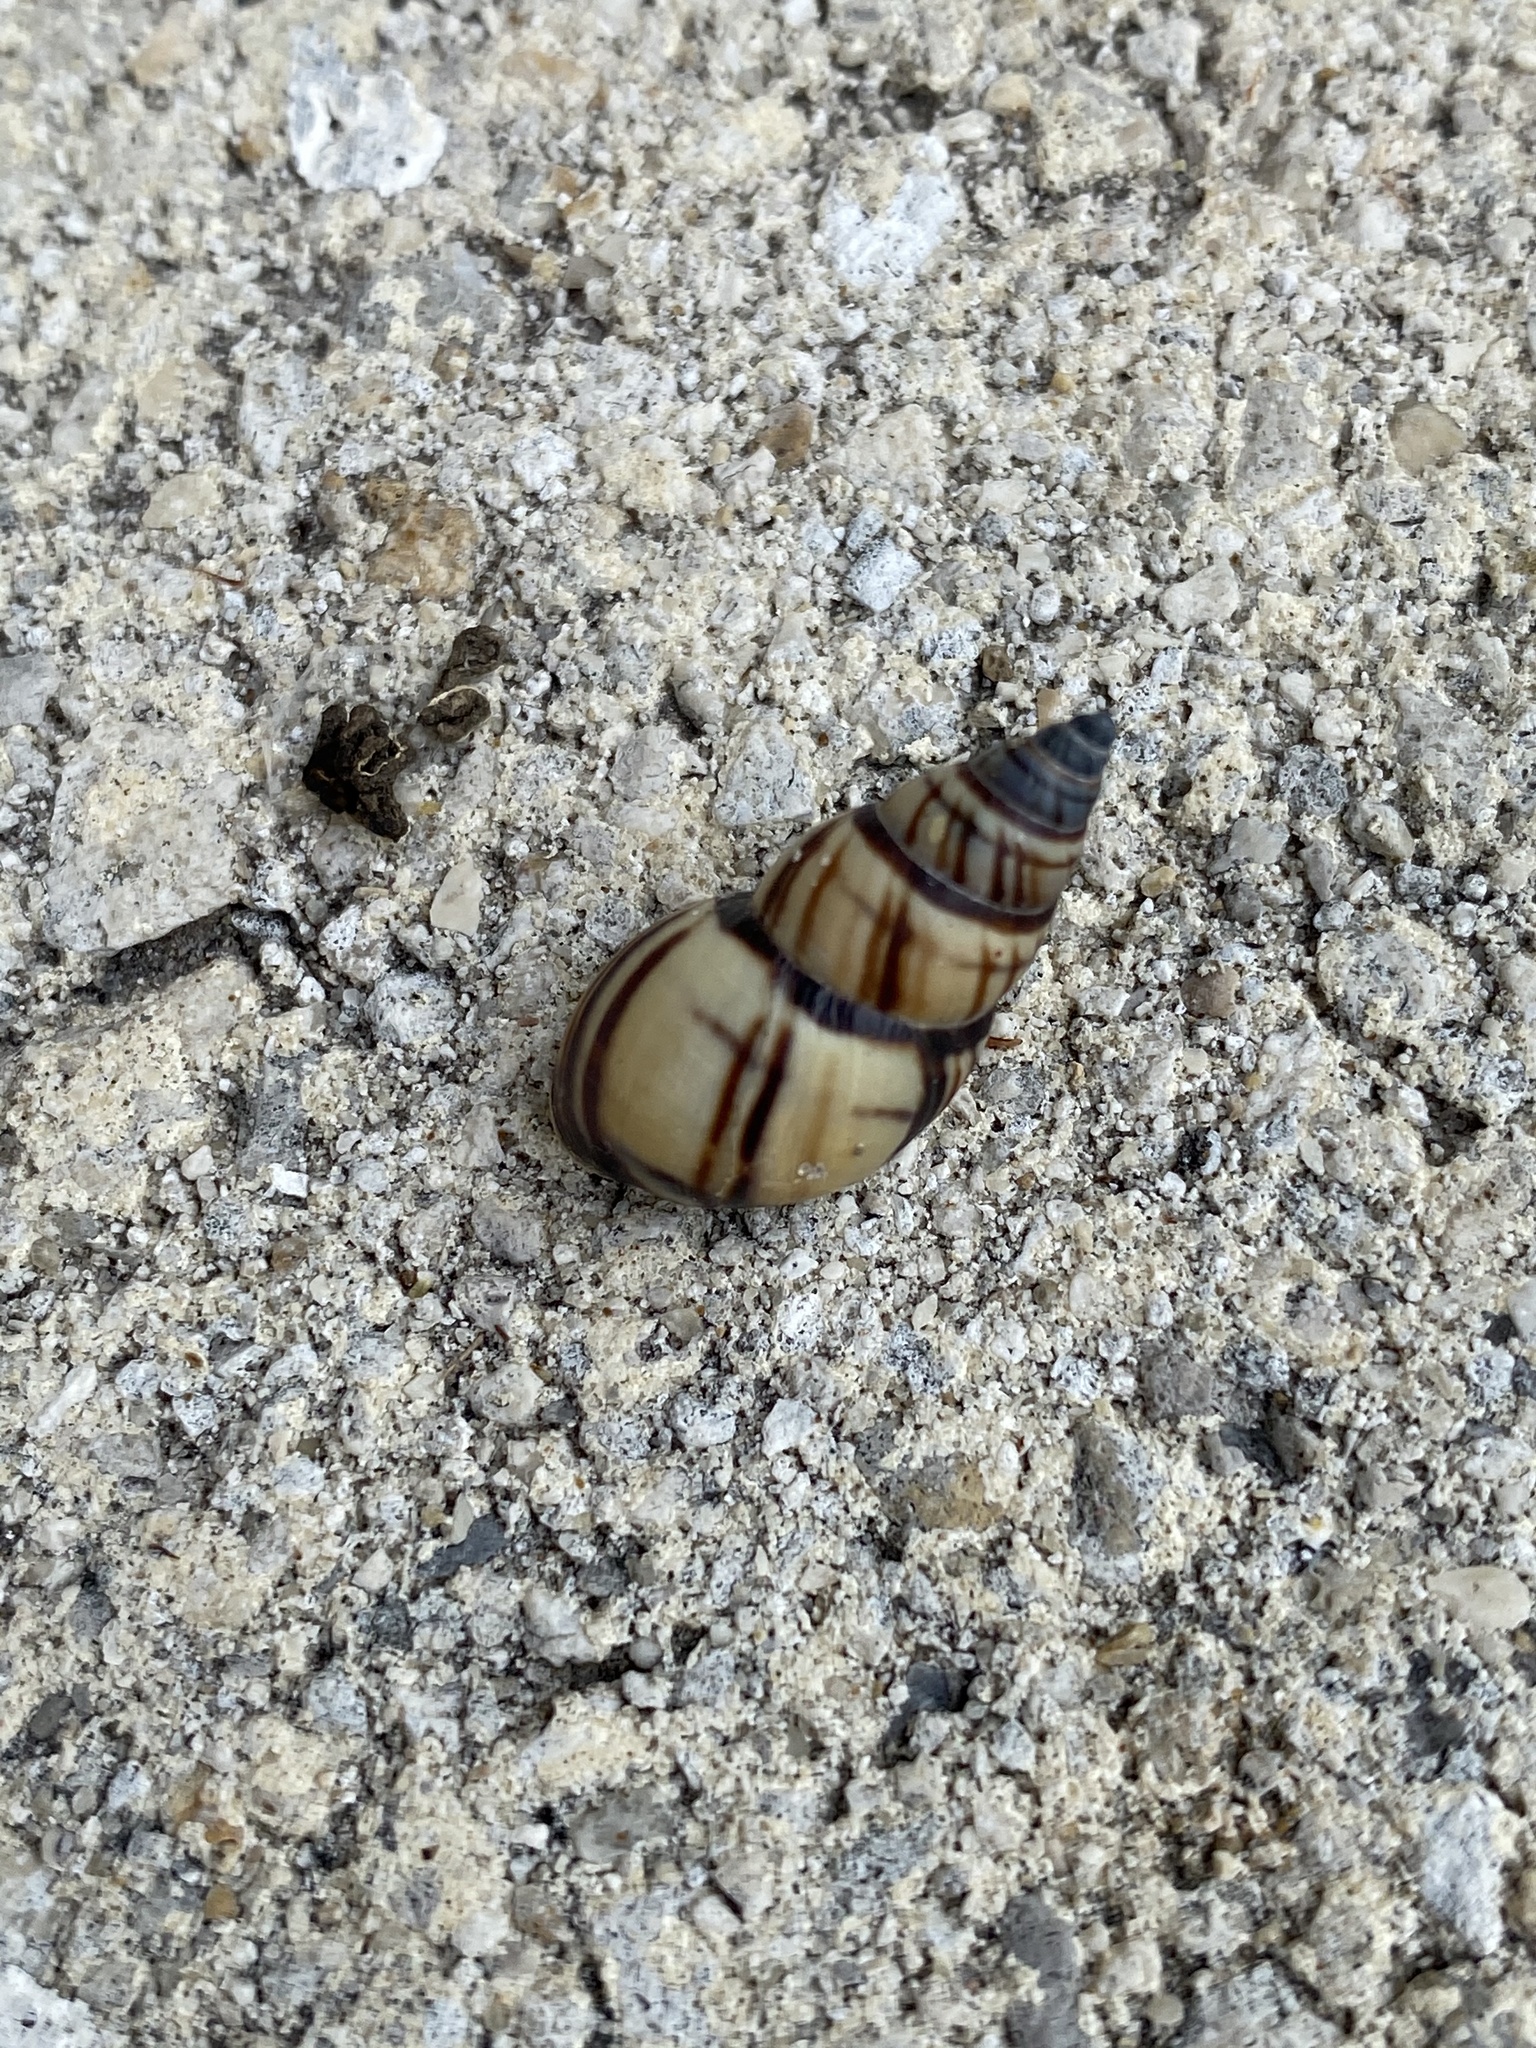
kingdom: Animalia
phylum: Mollusca
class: Gastropoda
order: Stylommatophora
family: Bulimulidae
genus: Drymaeus
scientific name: Drymaeus
